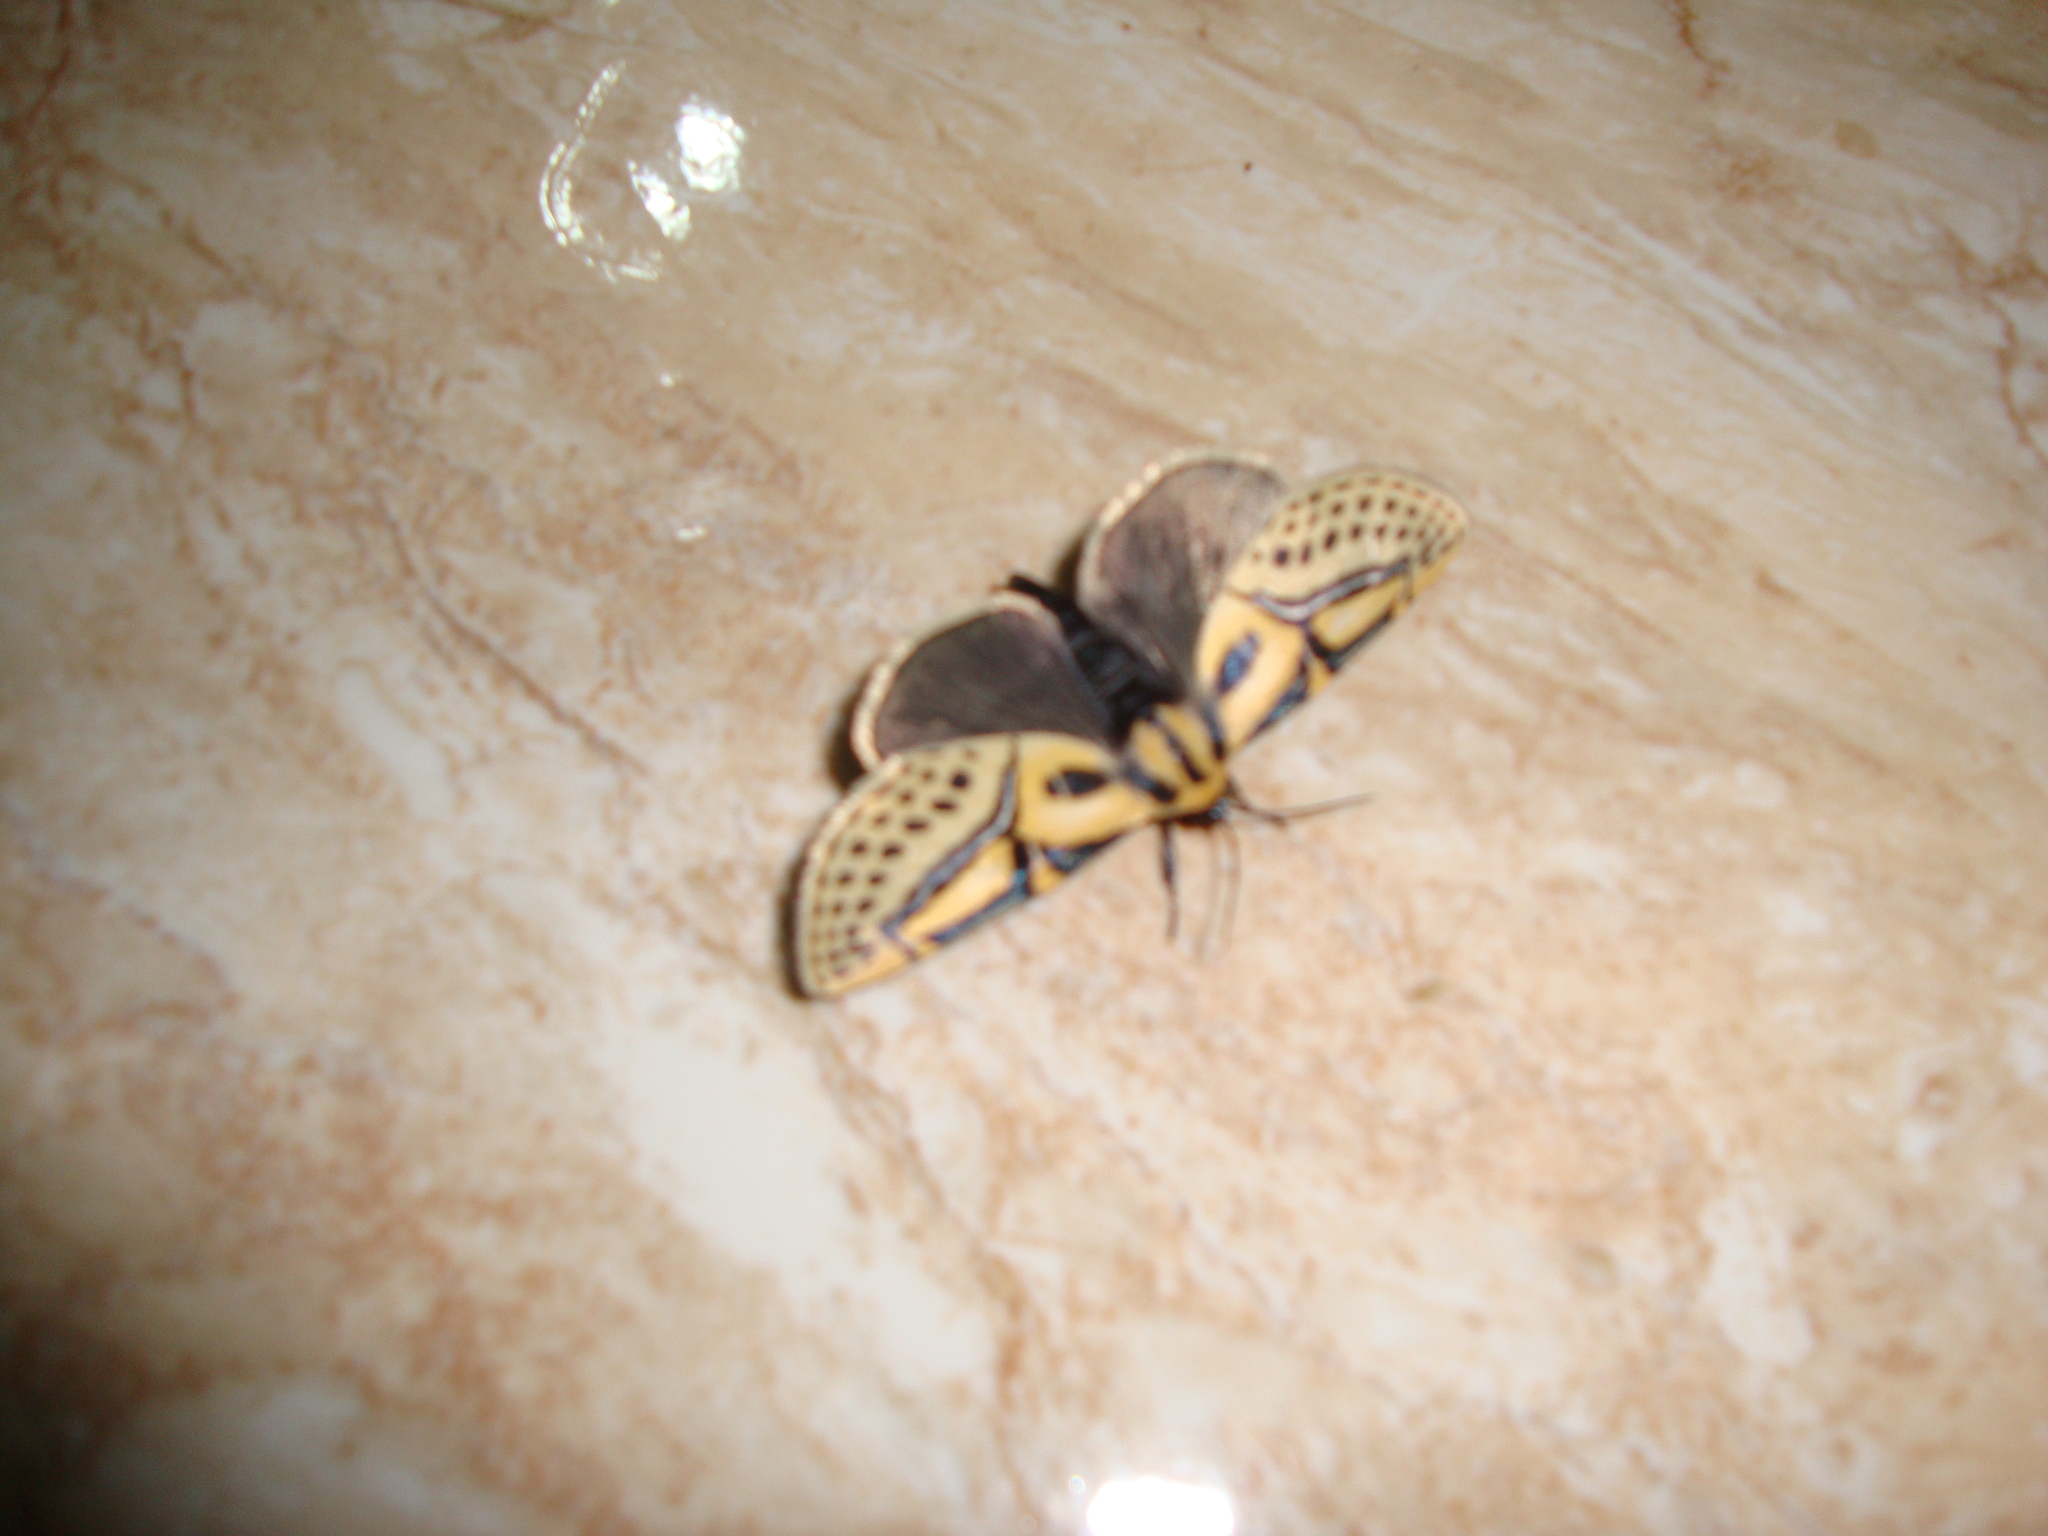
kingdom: Animalia
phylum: Arthropoda
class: Insecta
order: Lepidoptera
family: Erebidae
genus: Diphthera
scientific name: Diphthera festiva
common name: Hieroglyphic moth
